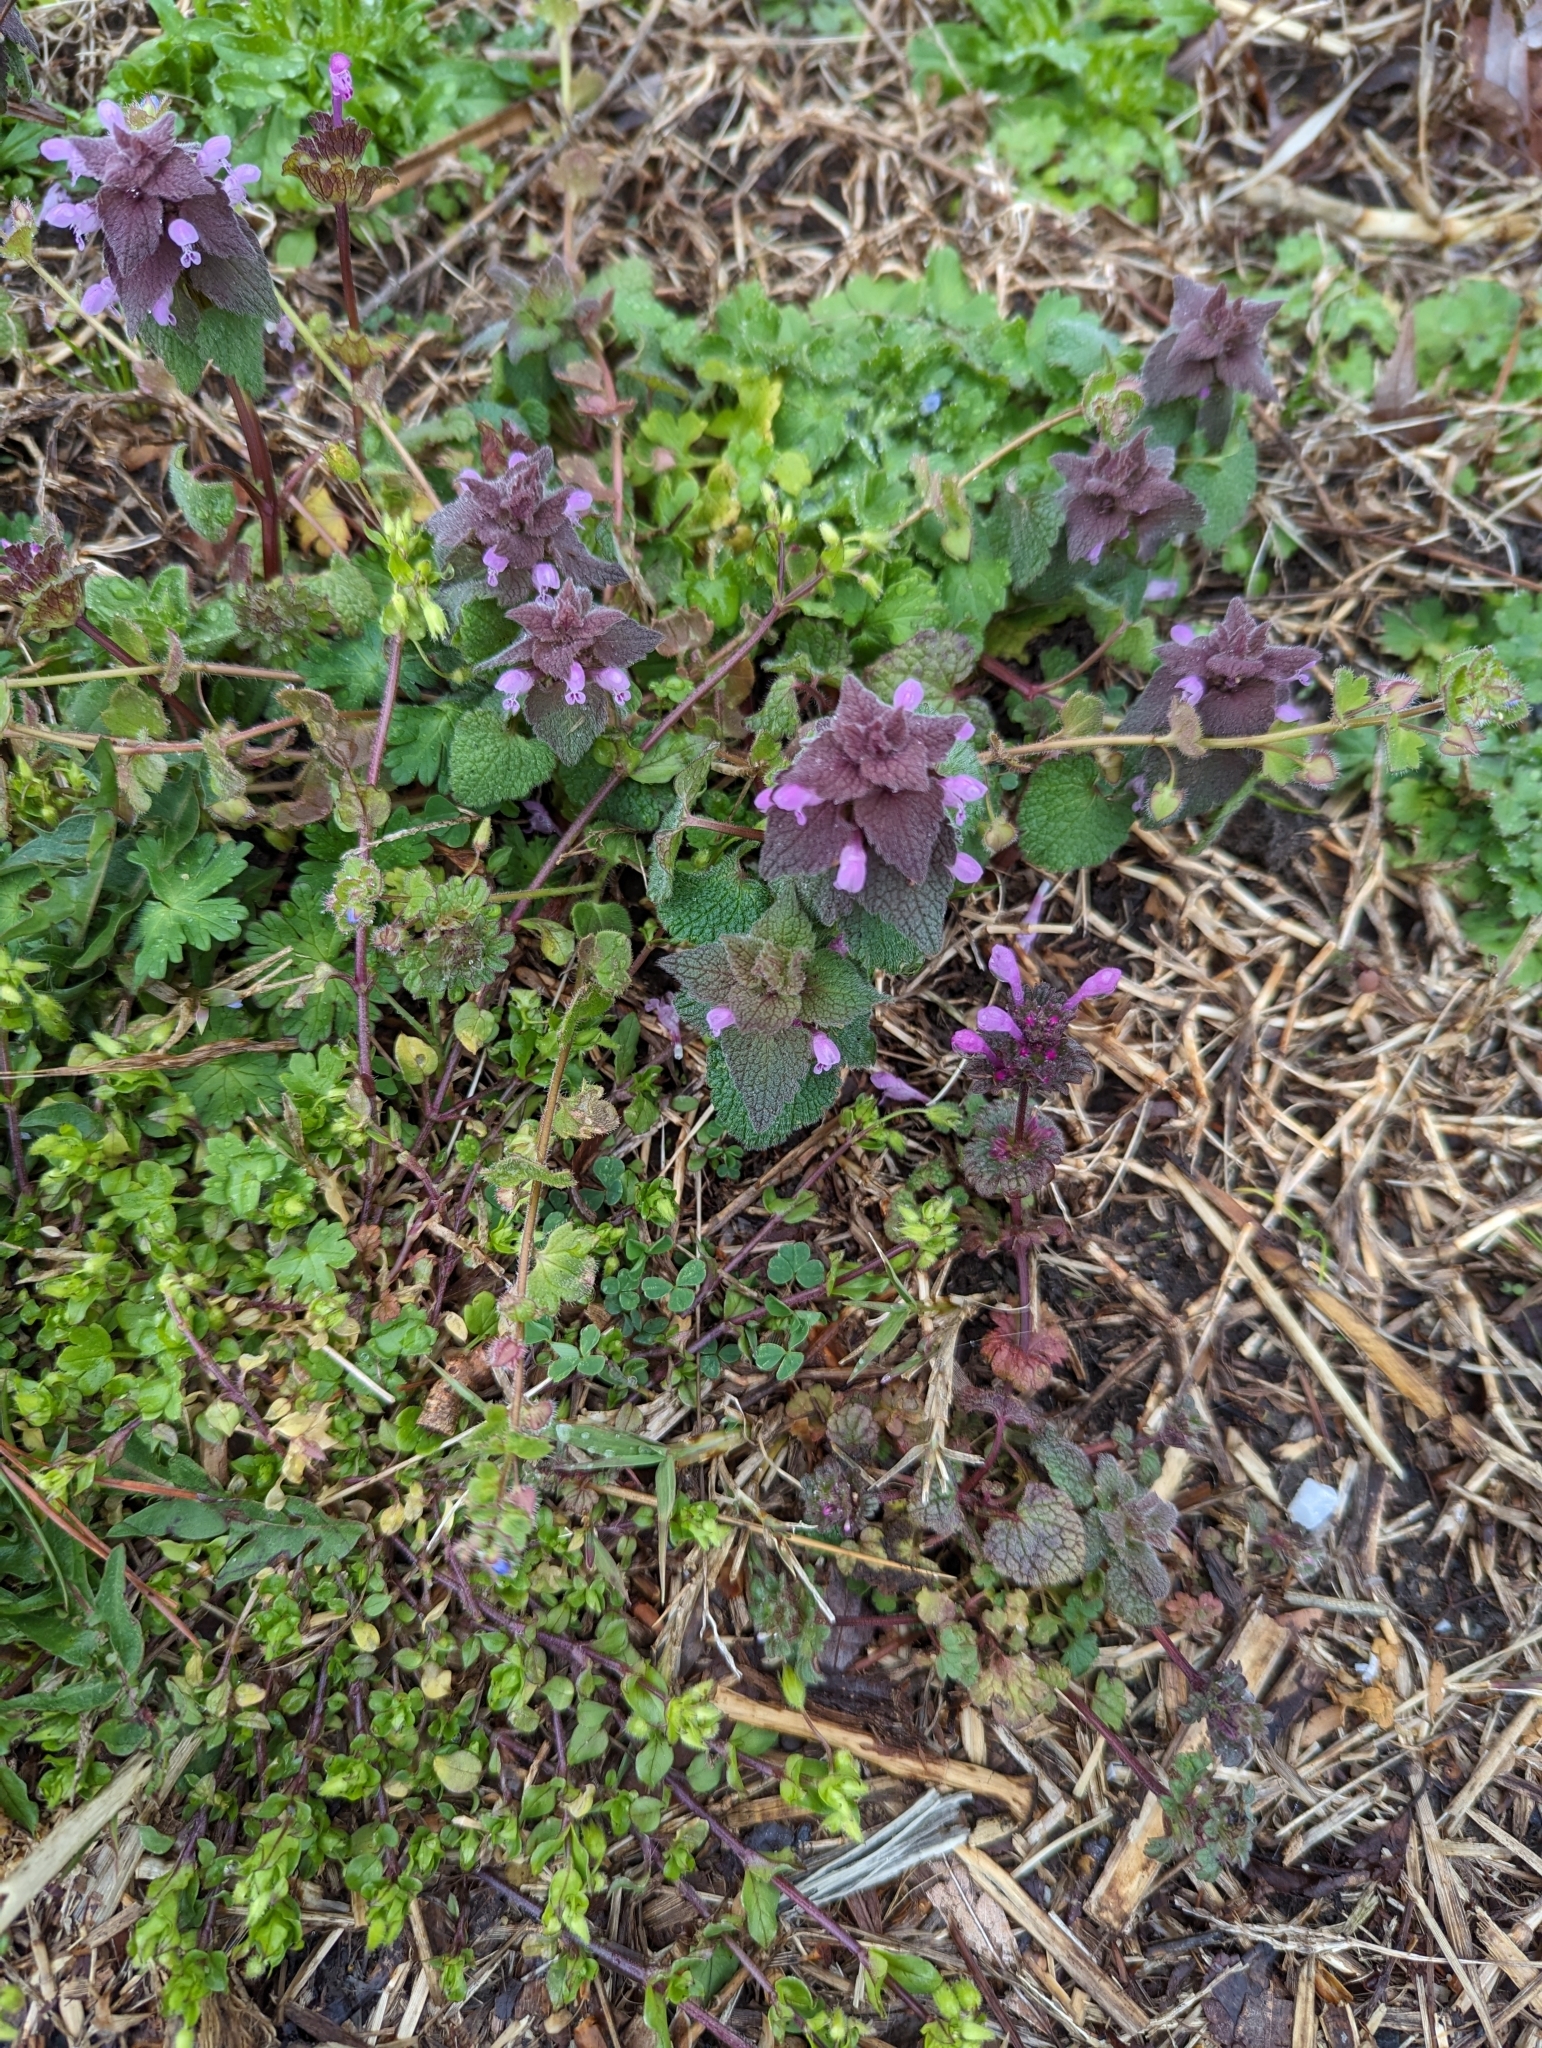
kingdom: Plantae
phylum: Tracheophyta
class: Magnoliopsida
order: Lamiales
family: Lamiaceae
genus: Lamium
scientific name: Lamium purpureum
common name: Red dead-nettle
